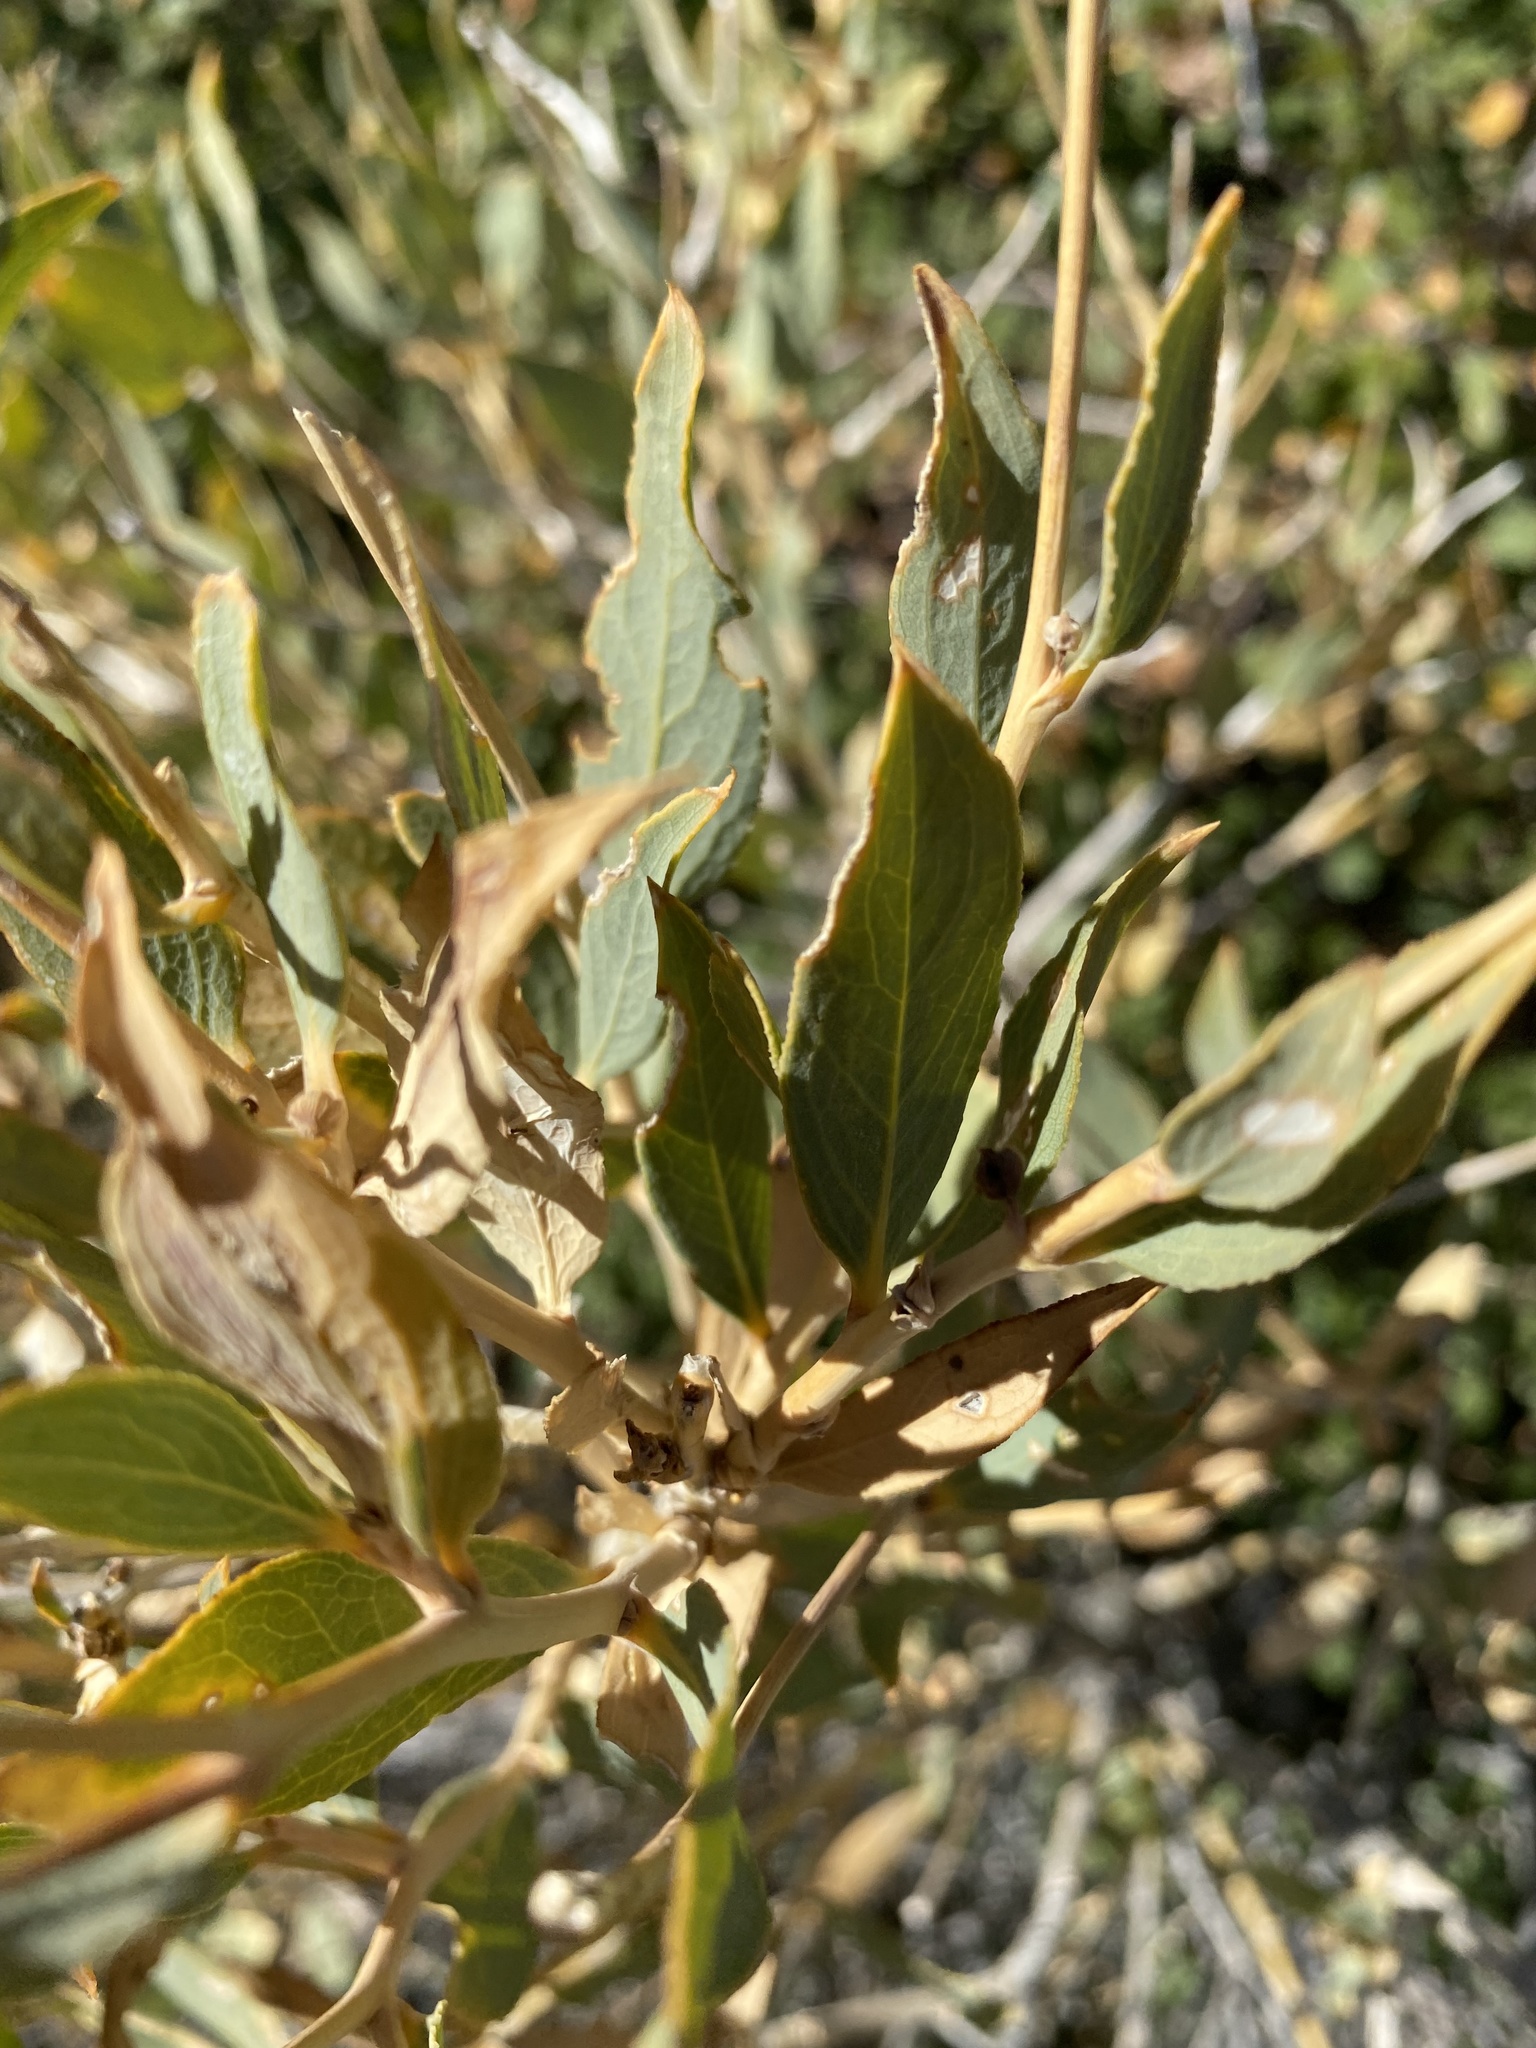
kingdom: Plantae
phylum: Tracheophyta
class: Magnoliopsida
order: Ranunculales
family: Papaveraceae
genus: Dendromecon
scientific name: Dendromecon rigida
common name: Tree poppy
